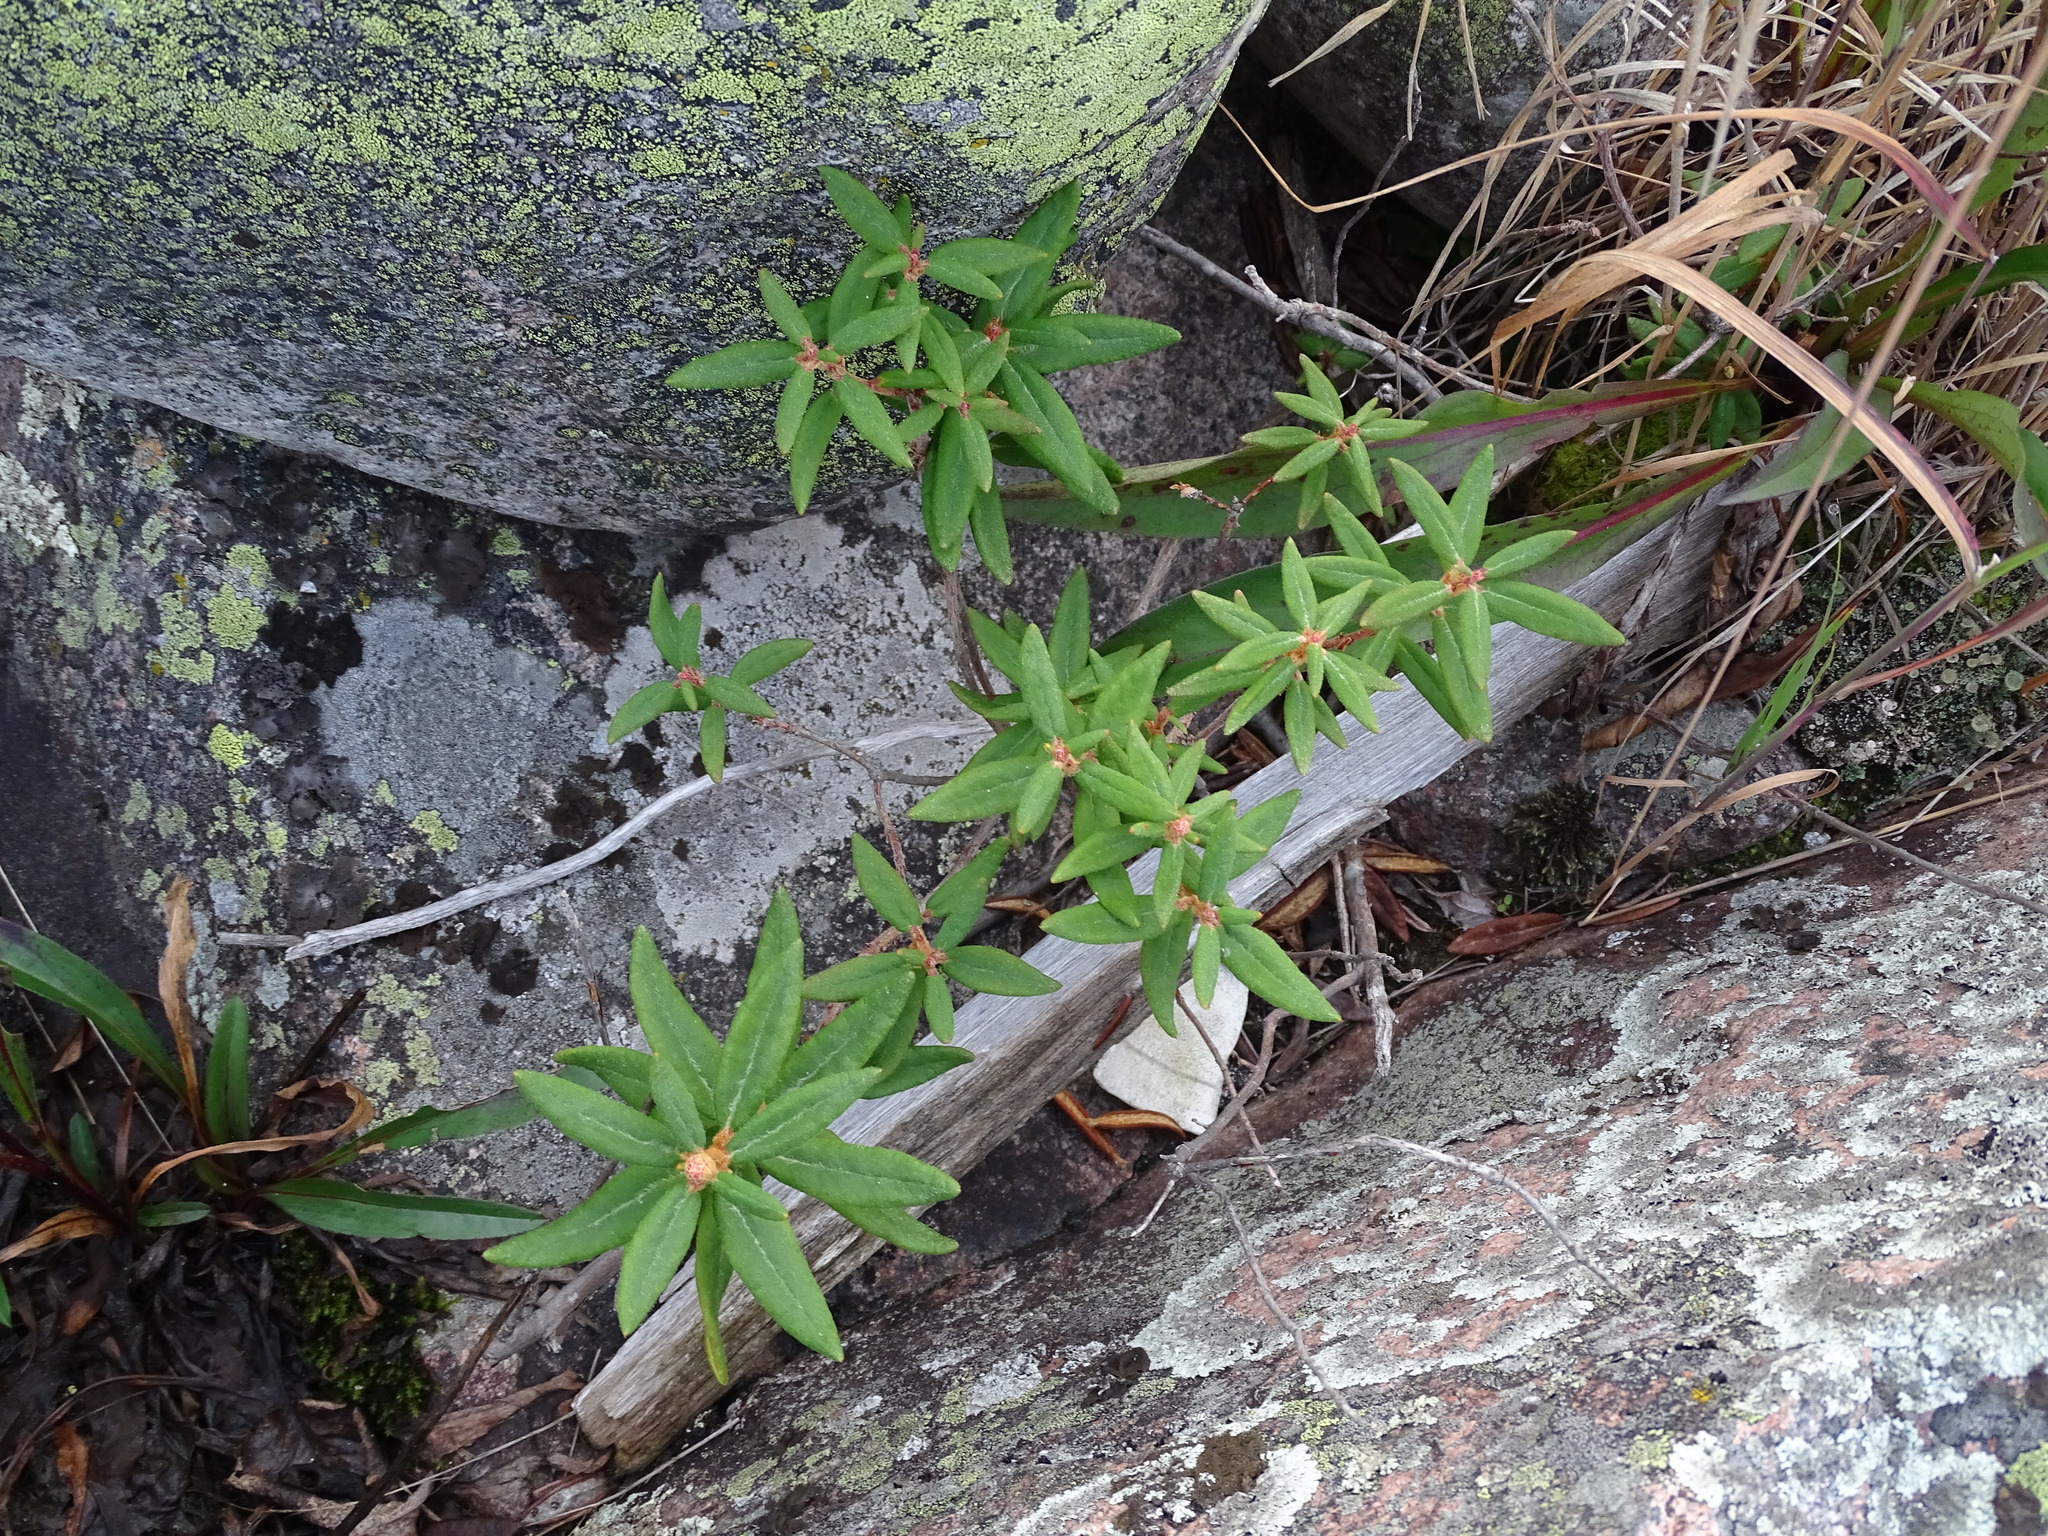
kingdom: Plantae
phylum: Tracheophyta
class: Magnoliopsida
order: Ericales
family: Ericaceae
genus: Rhododendron
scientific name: Rhododendron groenlandicum
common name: Bog labrador tea
